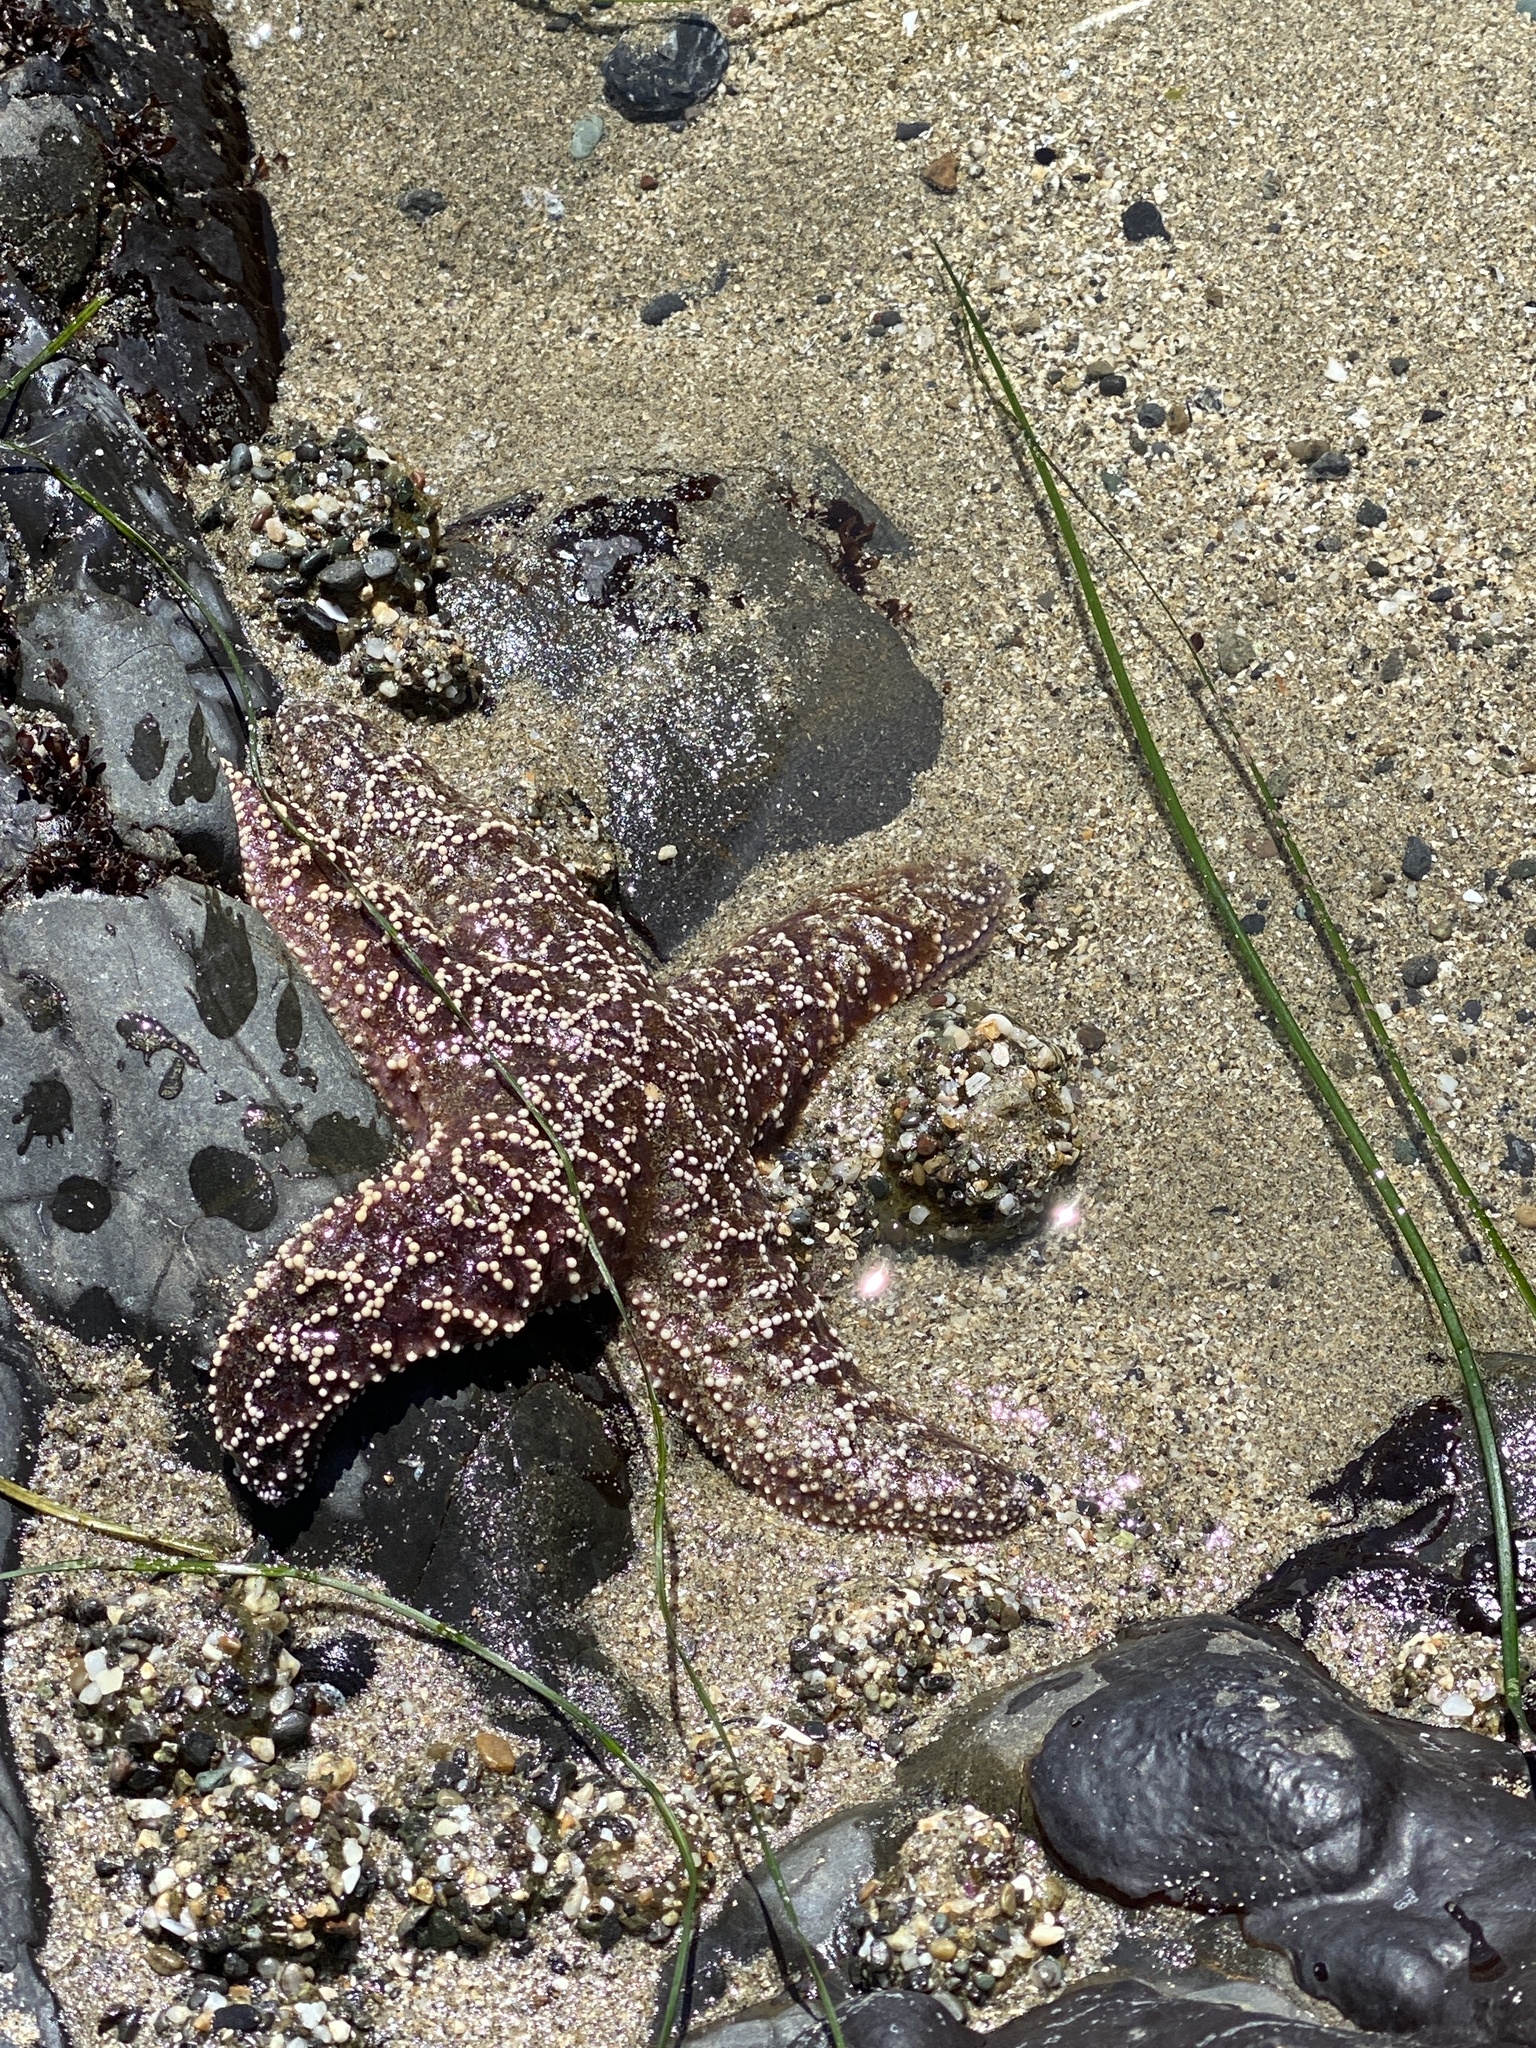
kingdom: Animalia
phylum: Echinodermata
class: Asteroidea
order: Forcipulatida
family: Asteriidae
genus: Pisaster
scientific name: Pisaster ochraceus
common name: Ochre stars
